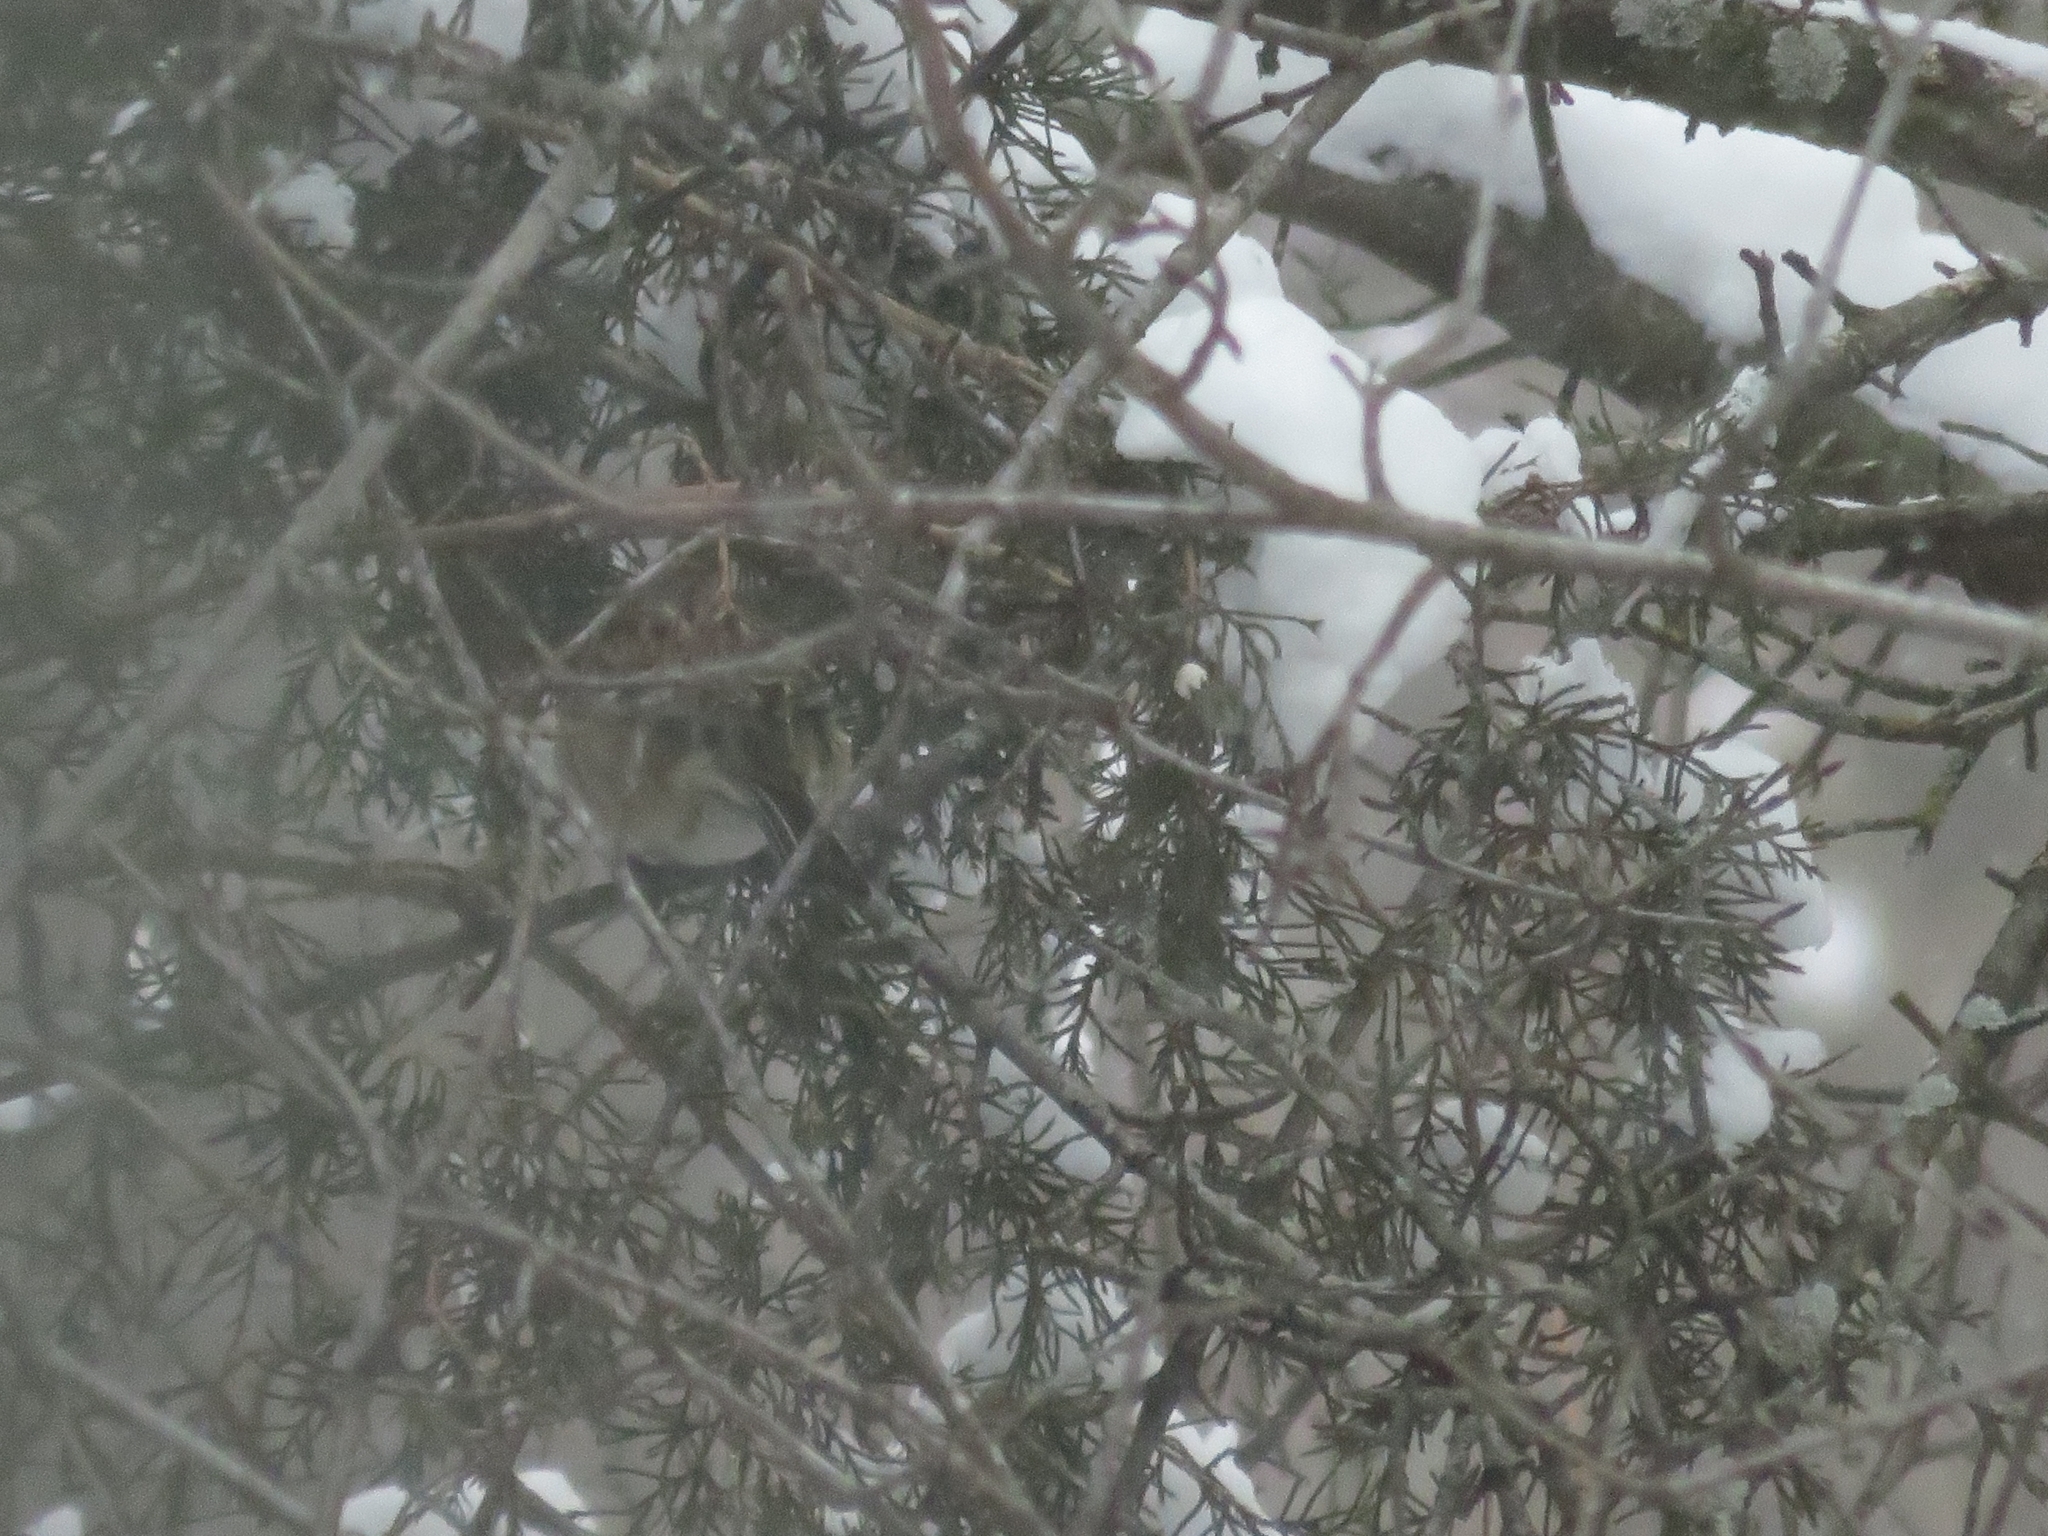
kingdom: Animalia
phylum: Chordata
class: Aves
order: Passeriformes
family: Passerellidae
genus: Spizelloides
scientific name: Spizelloides arborea
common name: American tree sparrow
